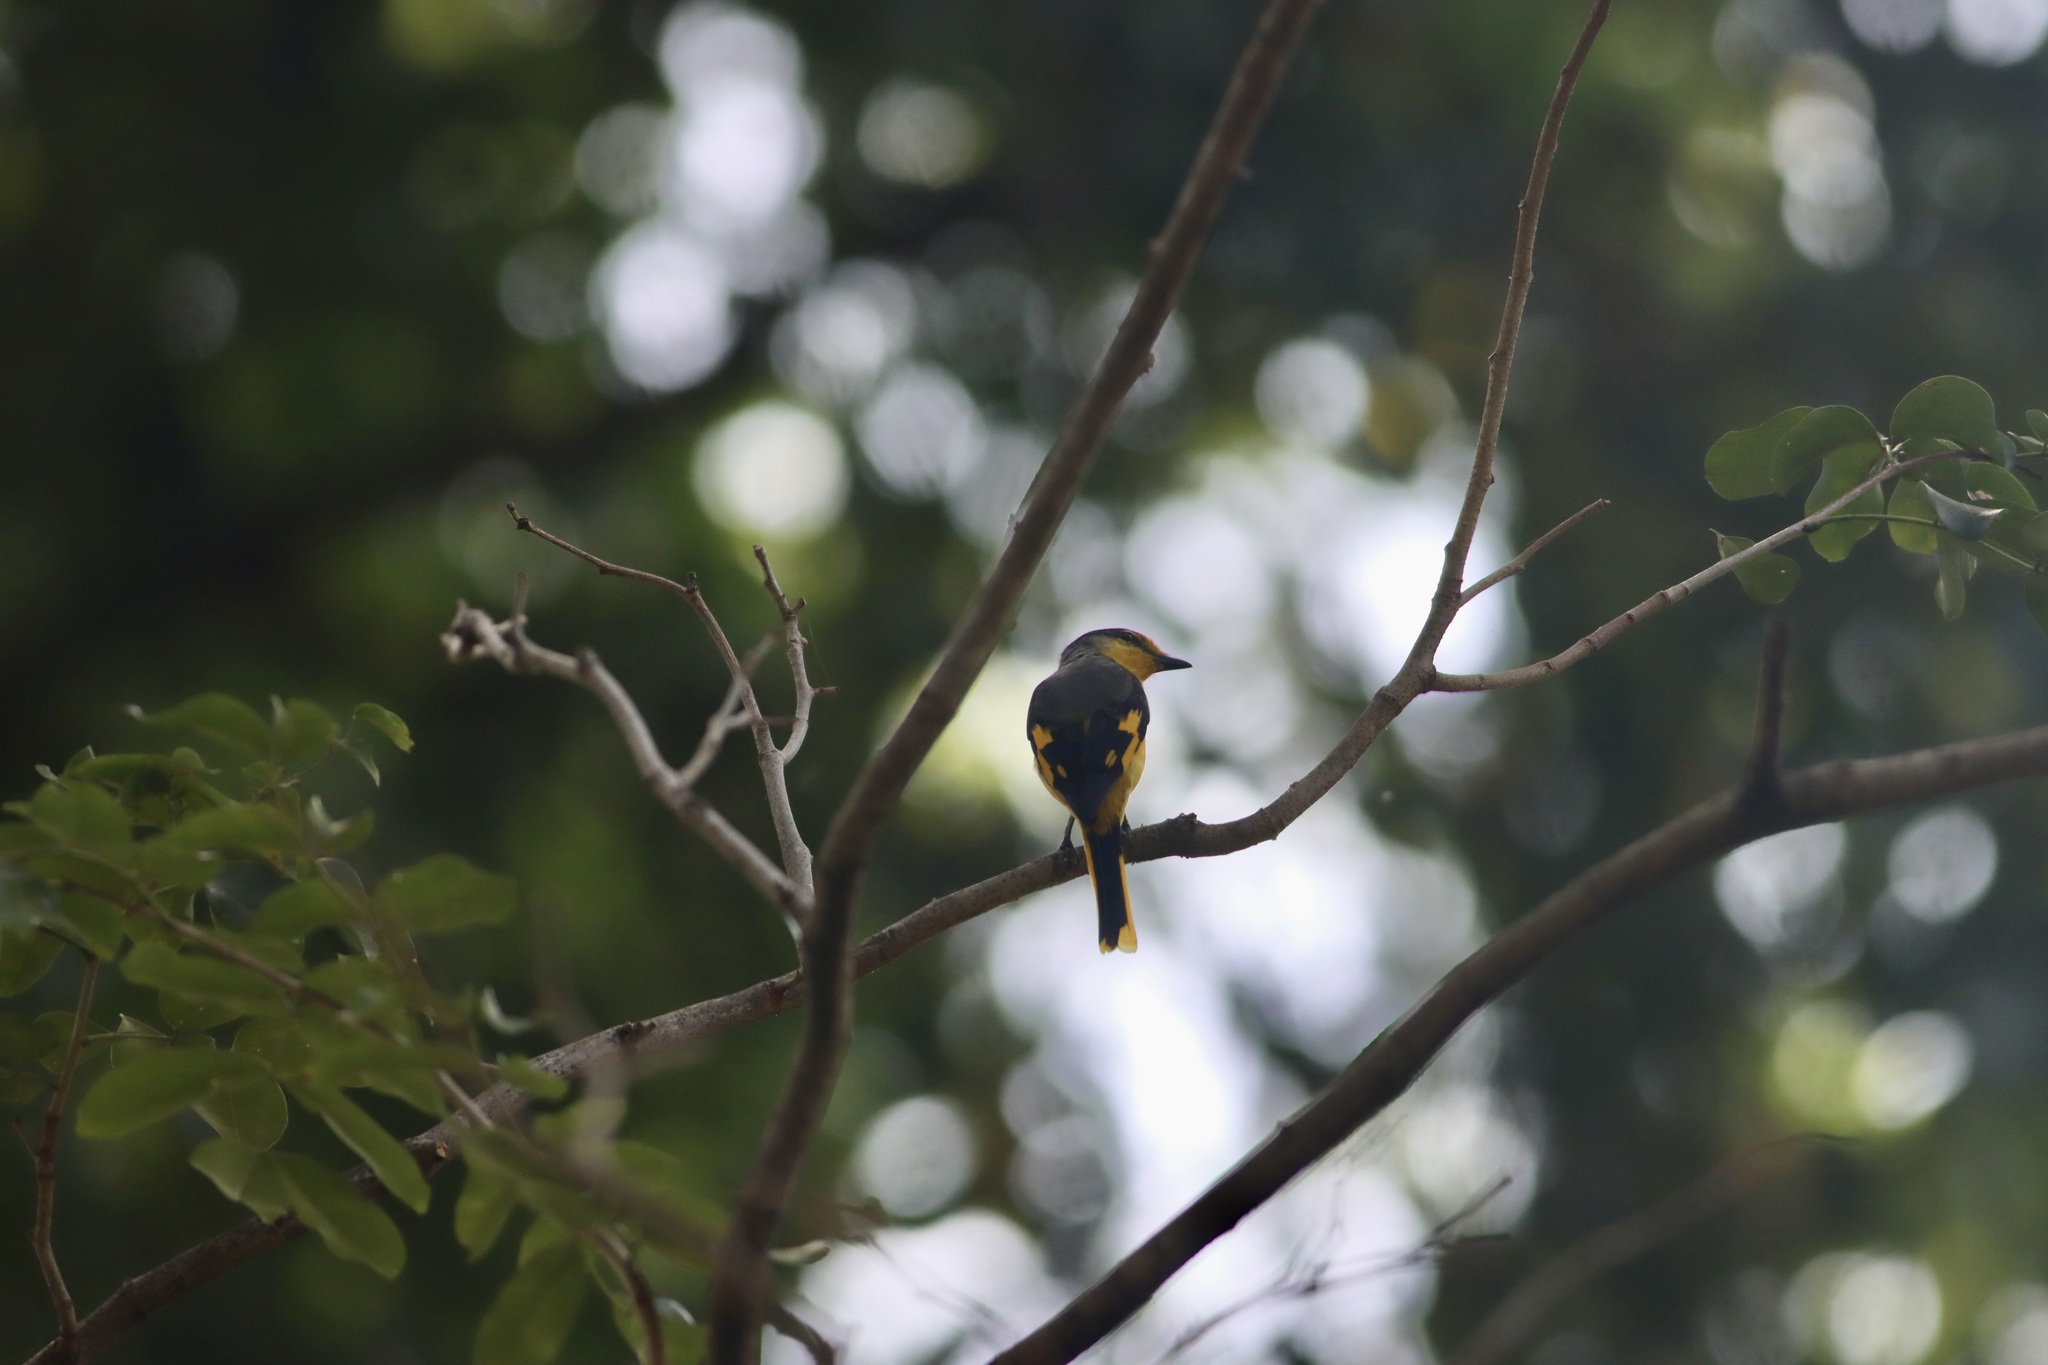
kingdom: Animalia
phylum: Chordata
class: Aves
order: Passeriformes
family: Campephagidae
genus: Pericrocotus
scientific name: Pericrocotus speciosus
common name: Scarlet minivet
